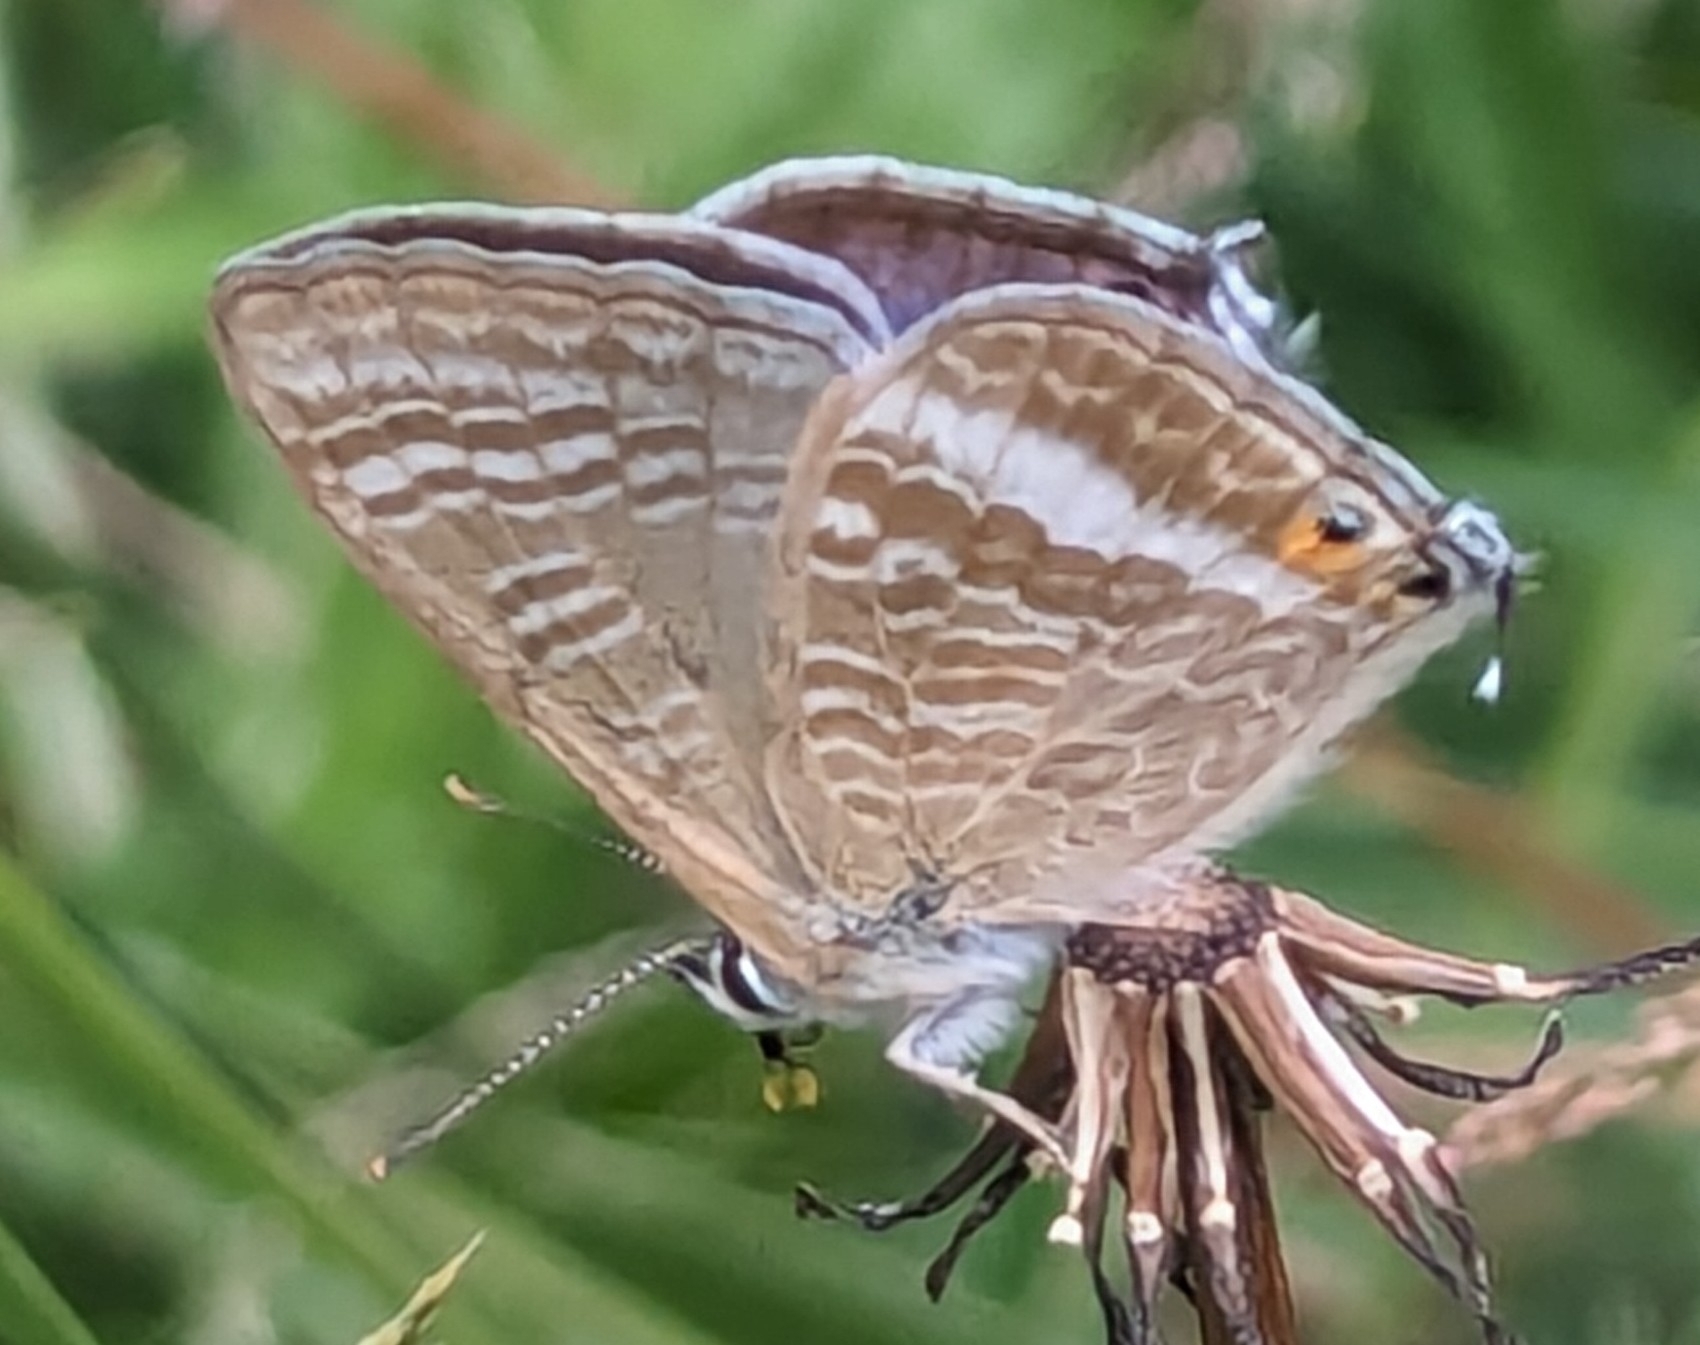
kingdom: Animalia
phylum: Arthropoda
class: Insecta
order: Lepidoptera
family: Lycaenidae
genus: Lampides
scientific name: Lampides boeticus
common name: Long-tailed blue
